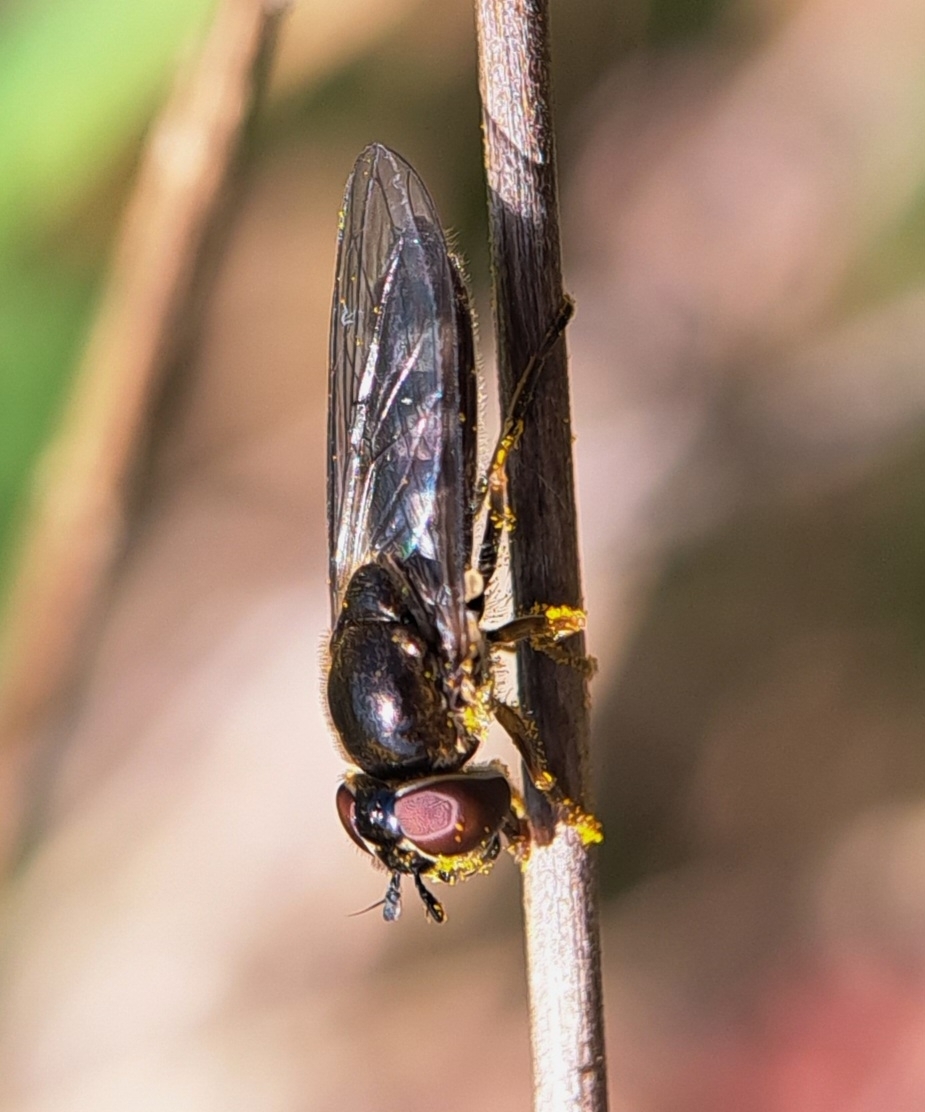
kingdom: Animalia
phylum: Arthropoda
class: Insecta
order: Diptera
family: Syrphidae
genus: Platycheirus
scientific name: Platycheirus albimanus
